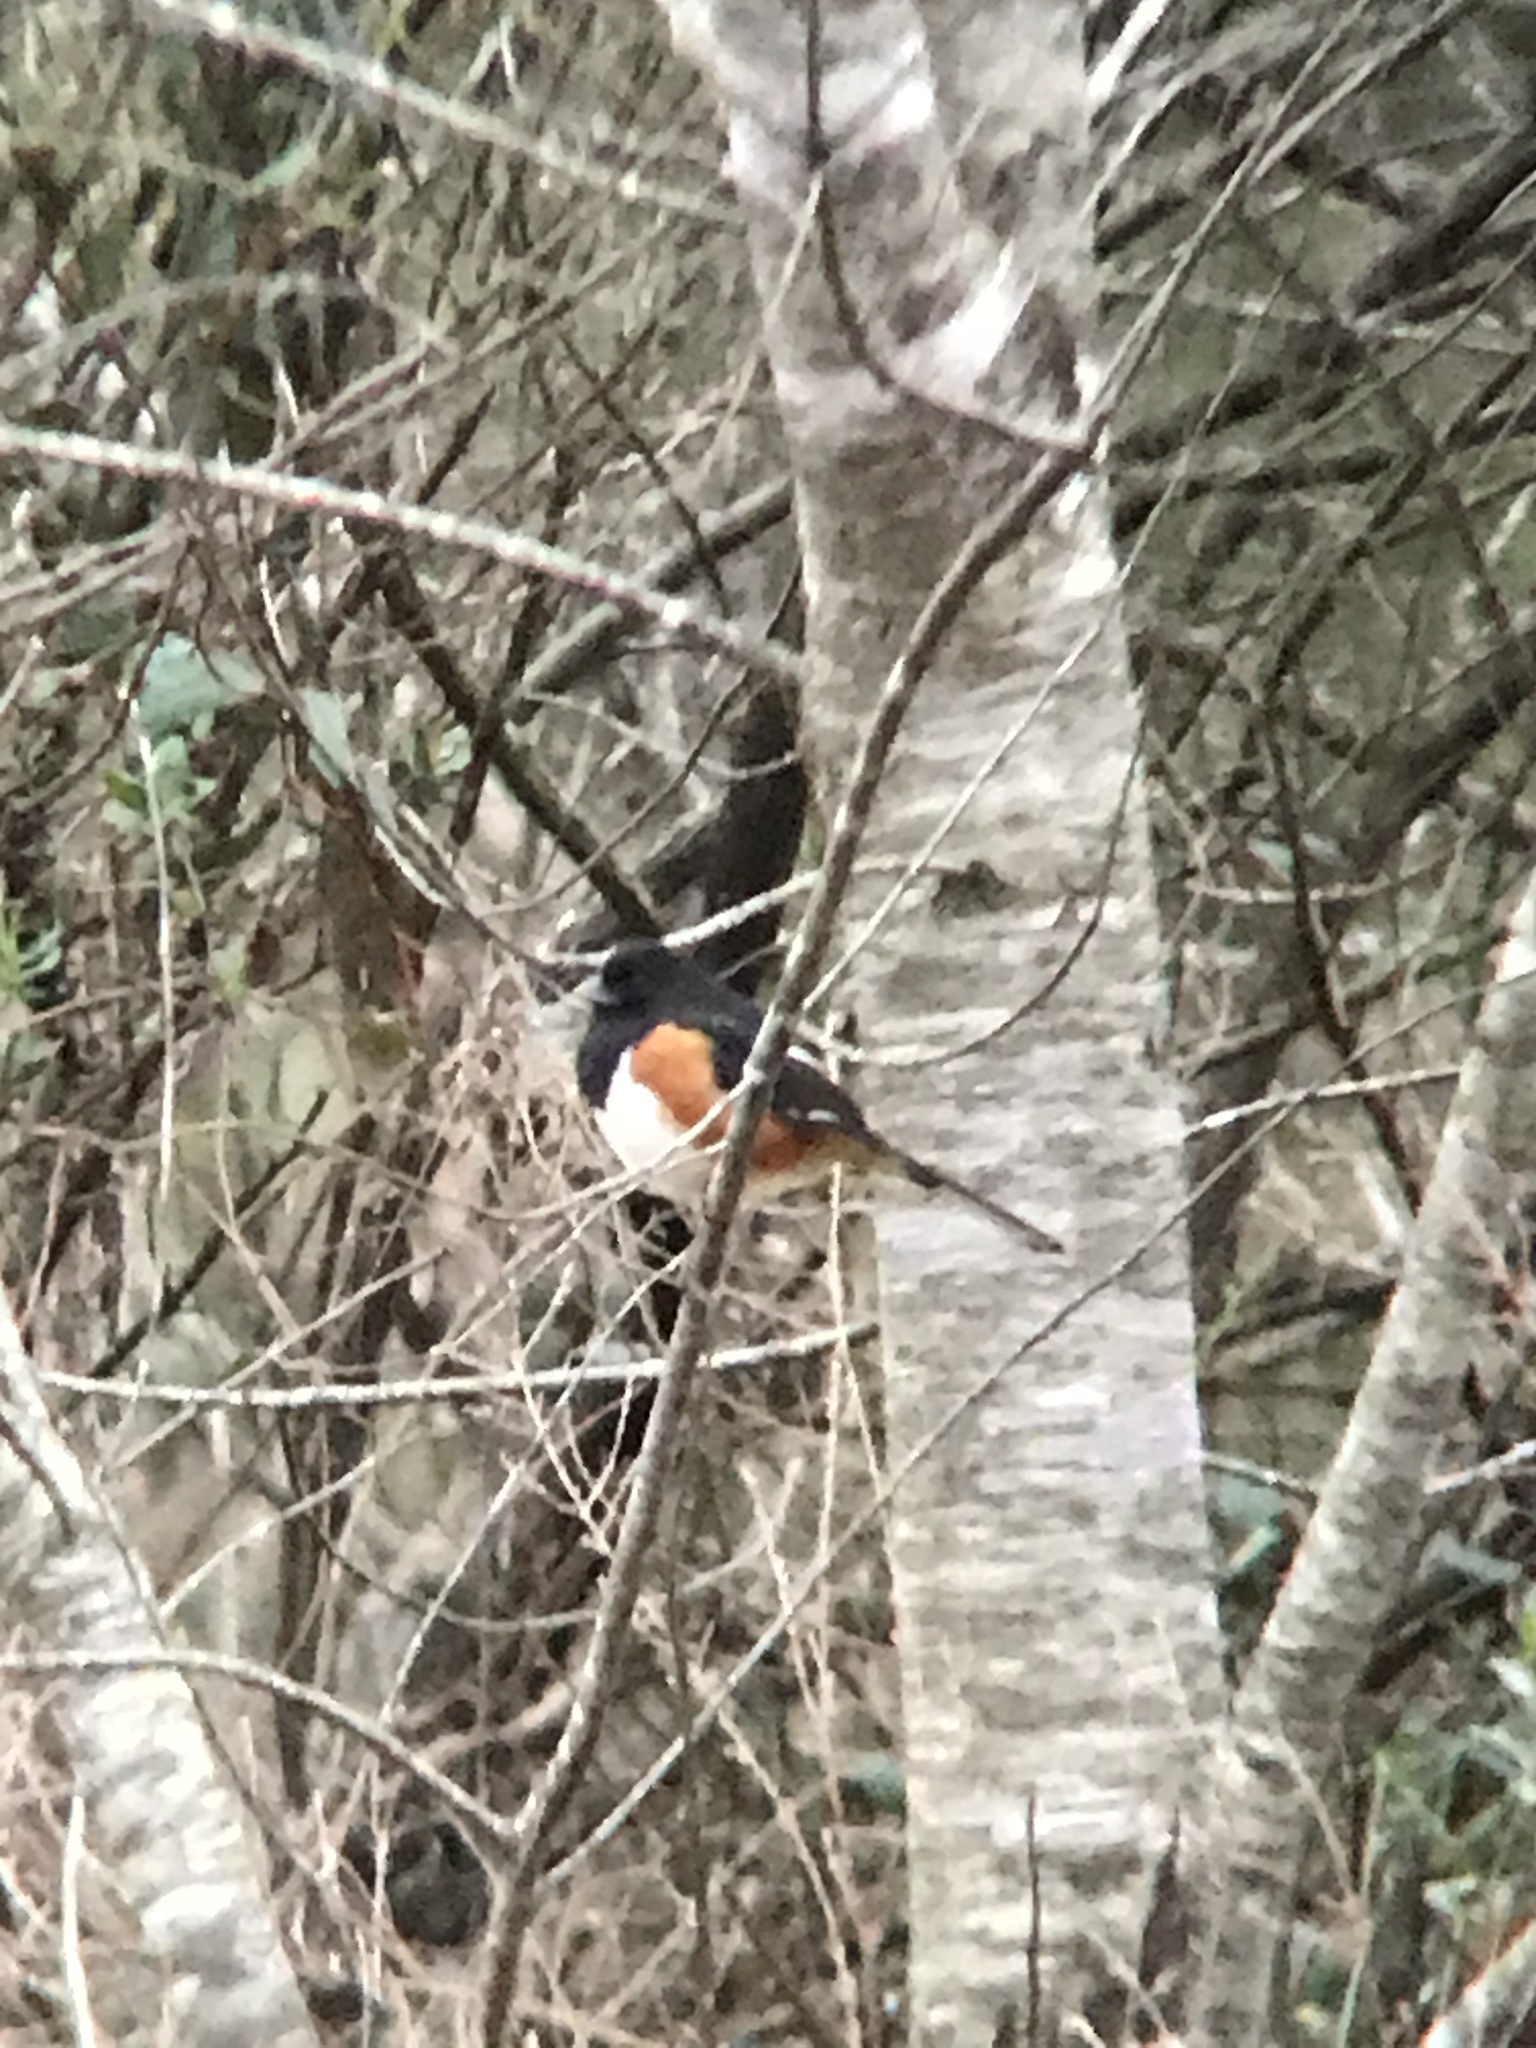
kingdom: Animalia
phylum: Chordata
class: Aves
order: Passeriformes
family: Passerellidae
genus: Pipilo
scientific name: Pipilo erythrophthalmus
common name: Eastern towhee
